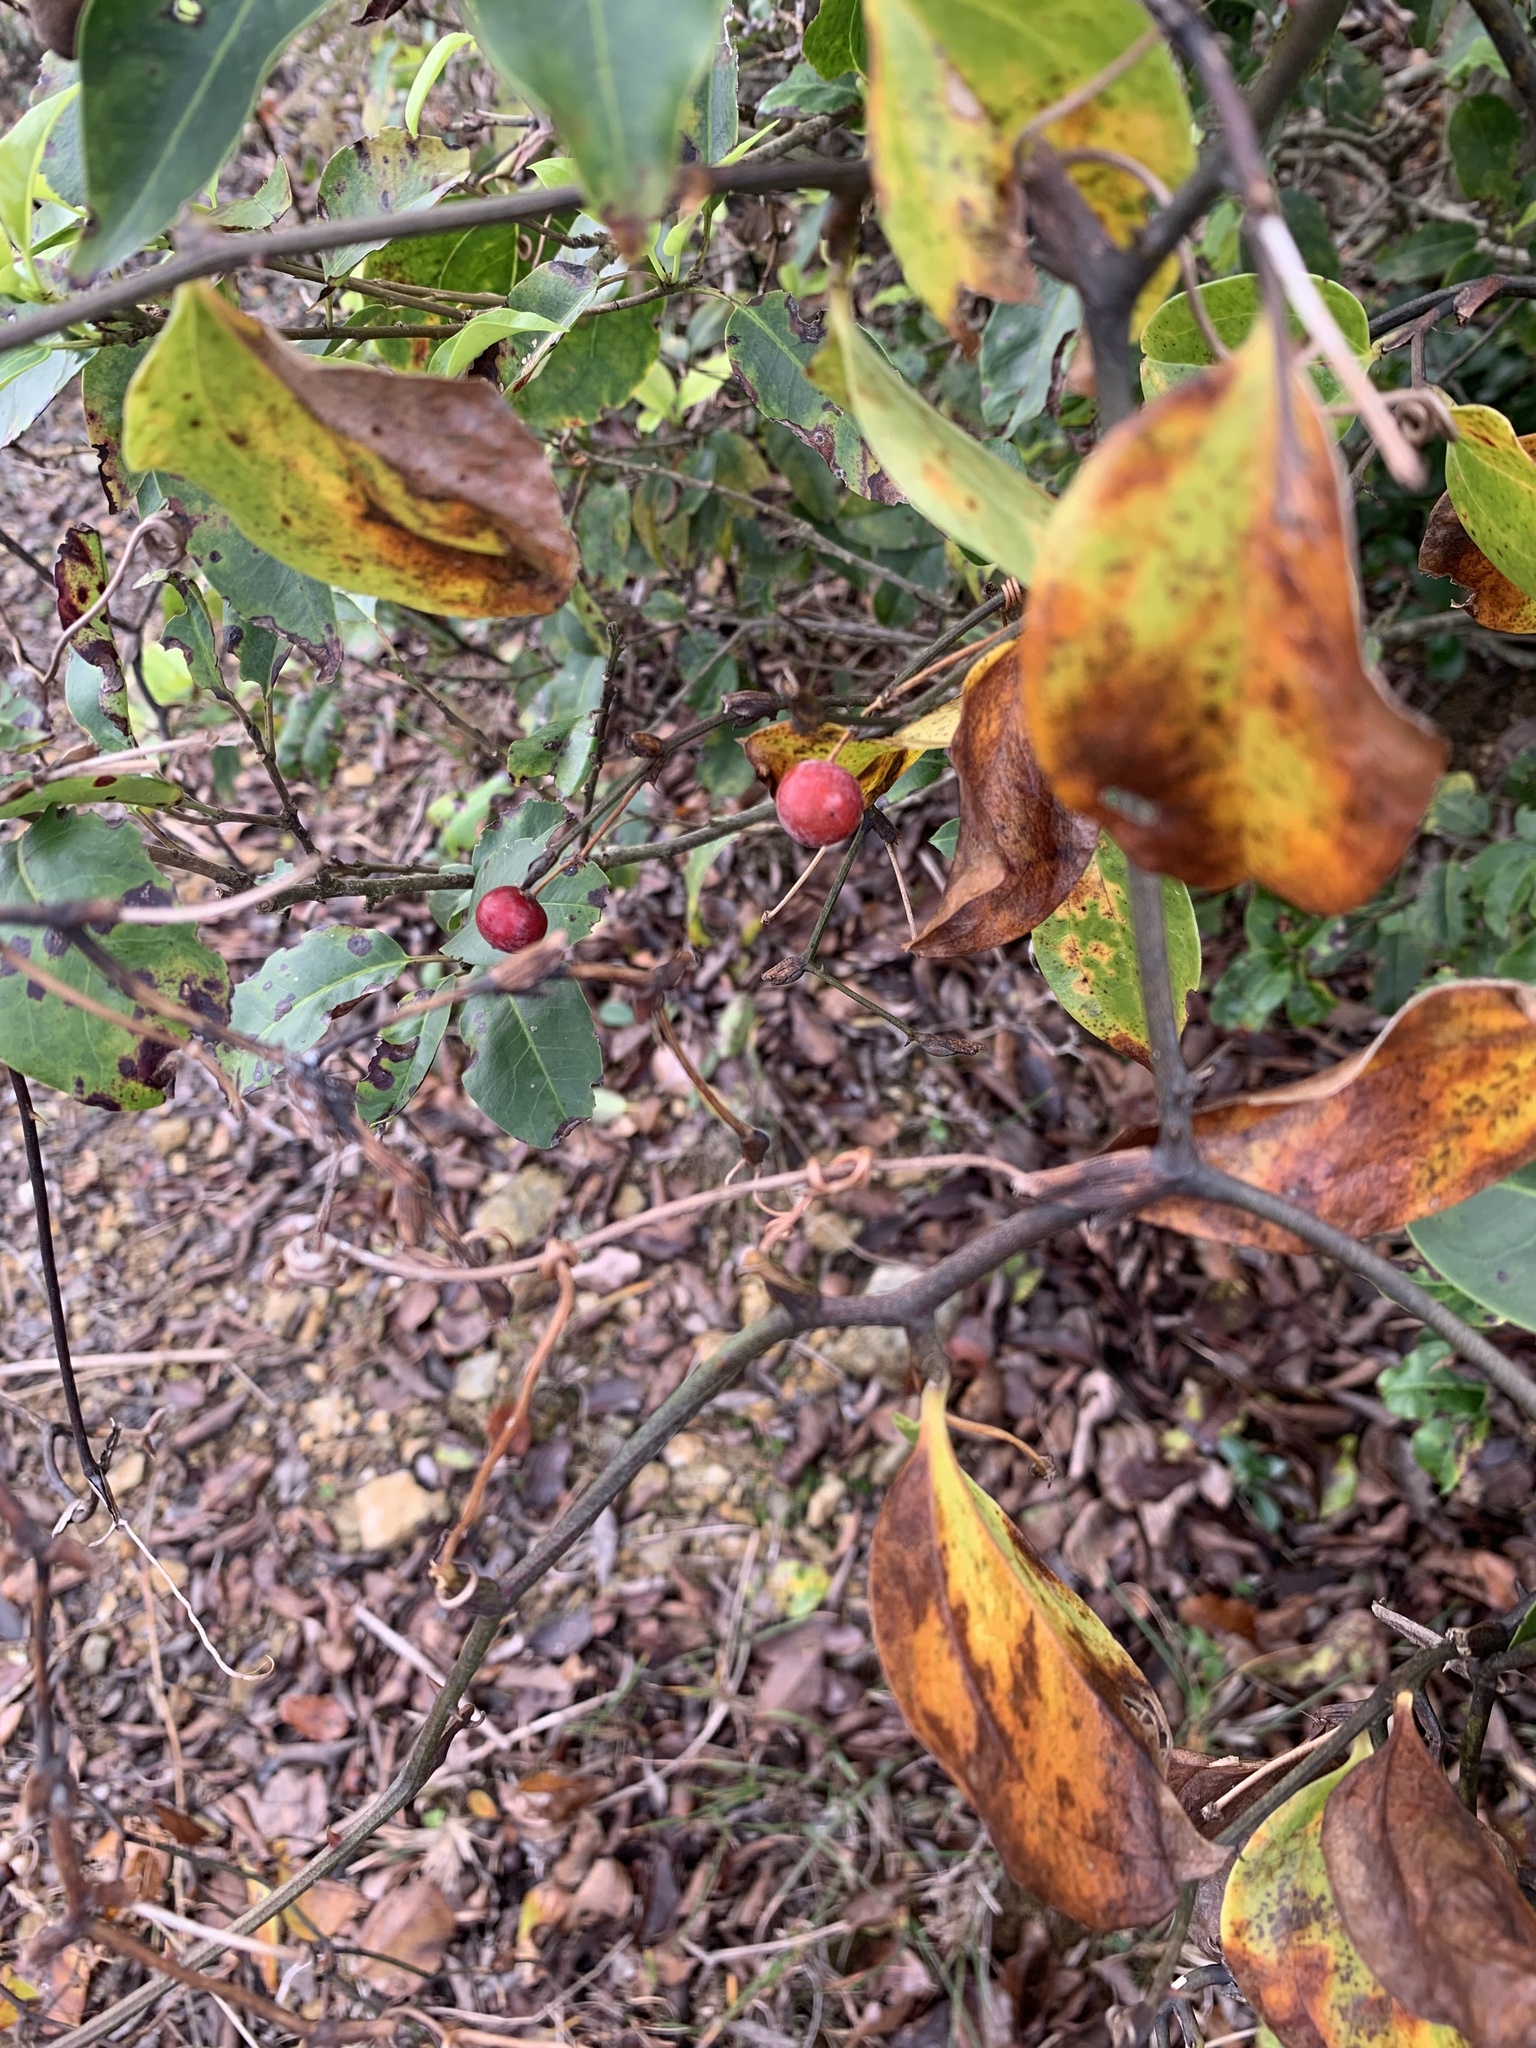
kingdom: Plantae
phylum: Tracheophyta
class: Liliopsida
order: Liliales
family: Smilacaceae
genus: Smilax
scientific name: Smilax china
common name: Chinaroot
